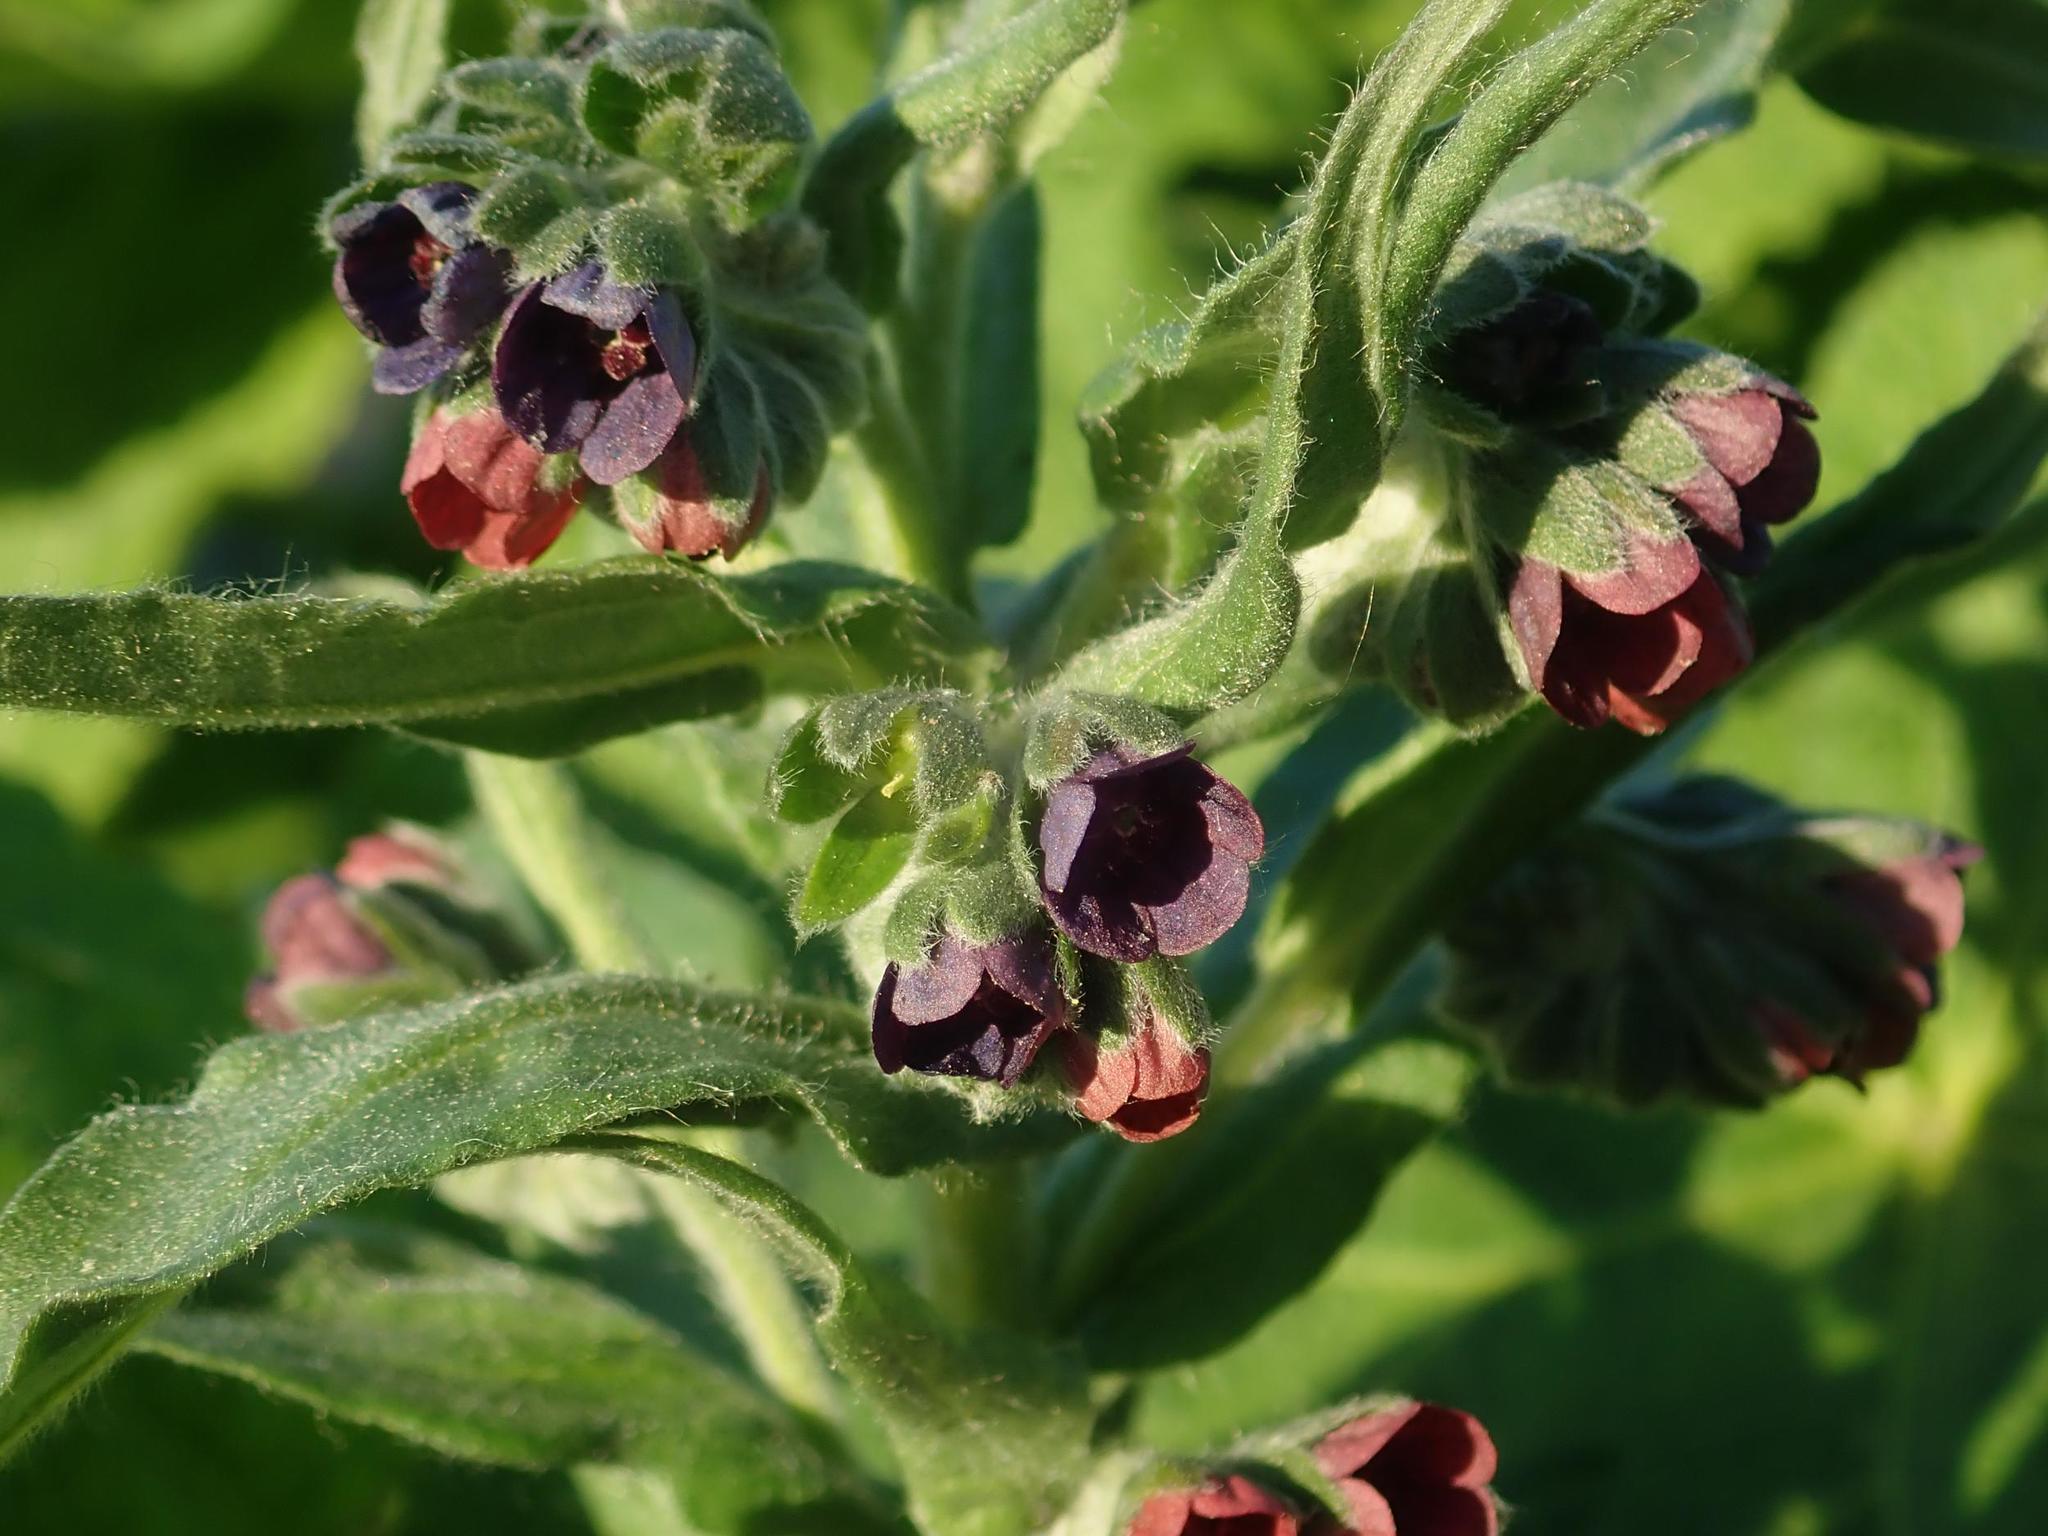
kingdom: Plantae
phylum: Tracheophyta
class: Magnoliopsida
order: Boraginales
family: Boraginaceae
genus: Cynoglossum
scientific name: Cynoglossum officinale
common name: Hound's-tongue
